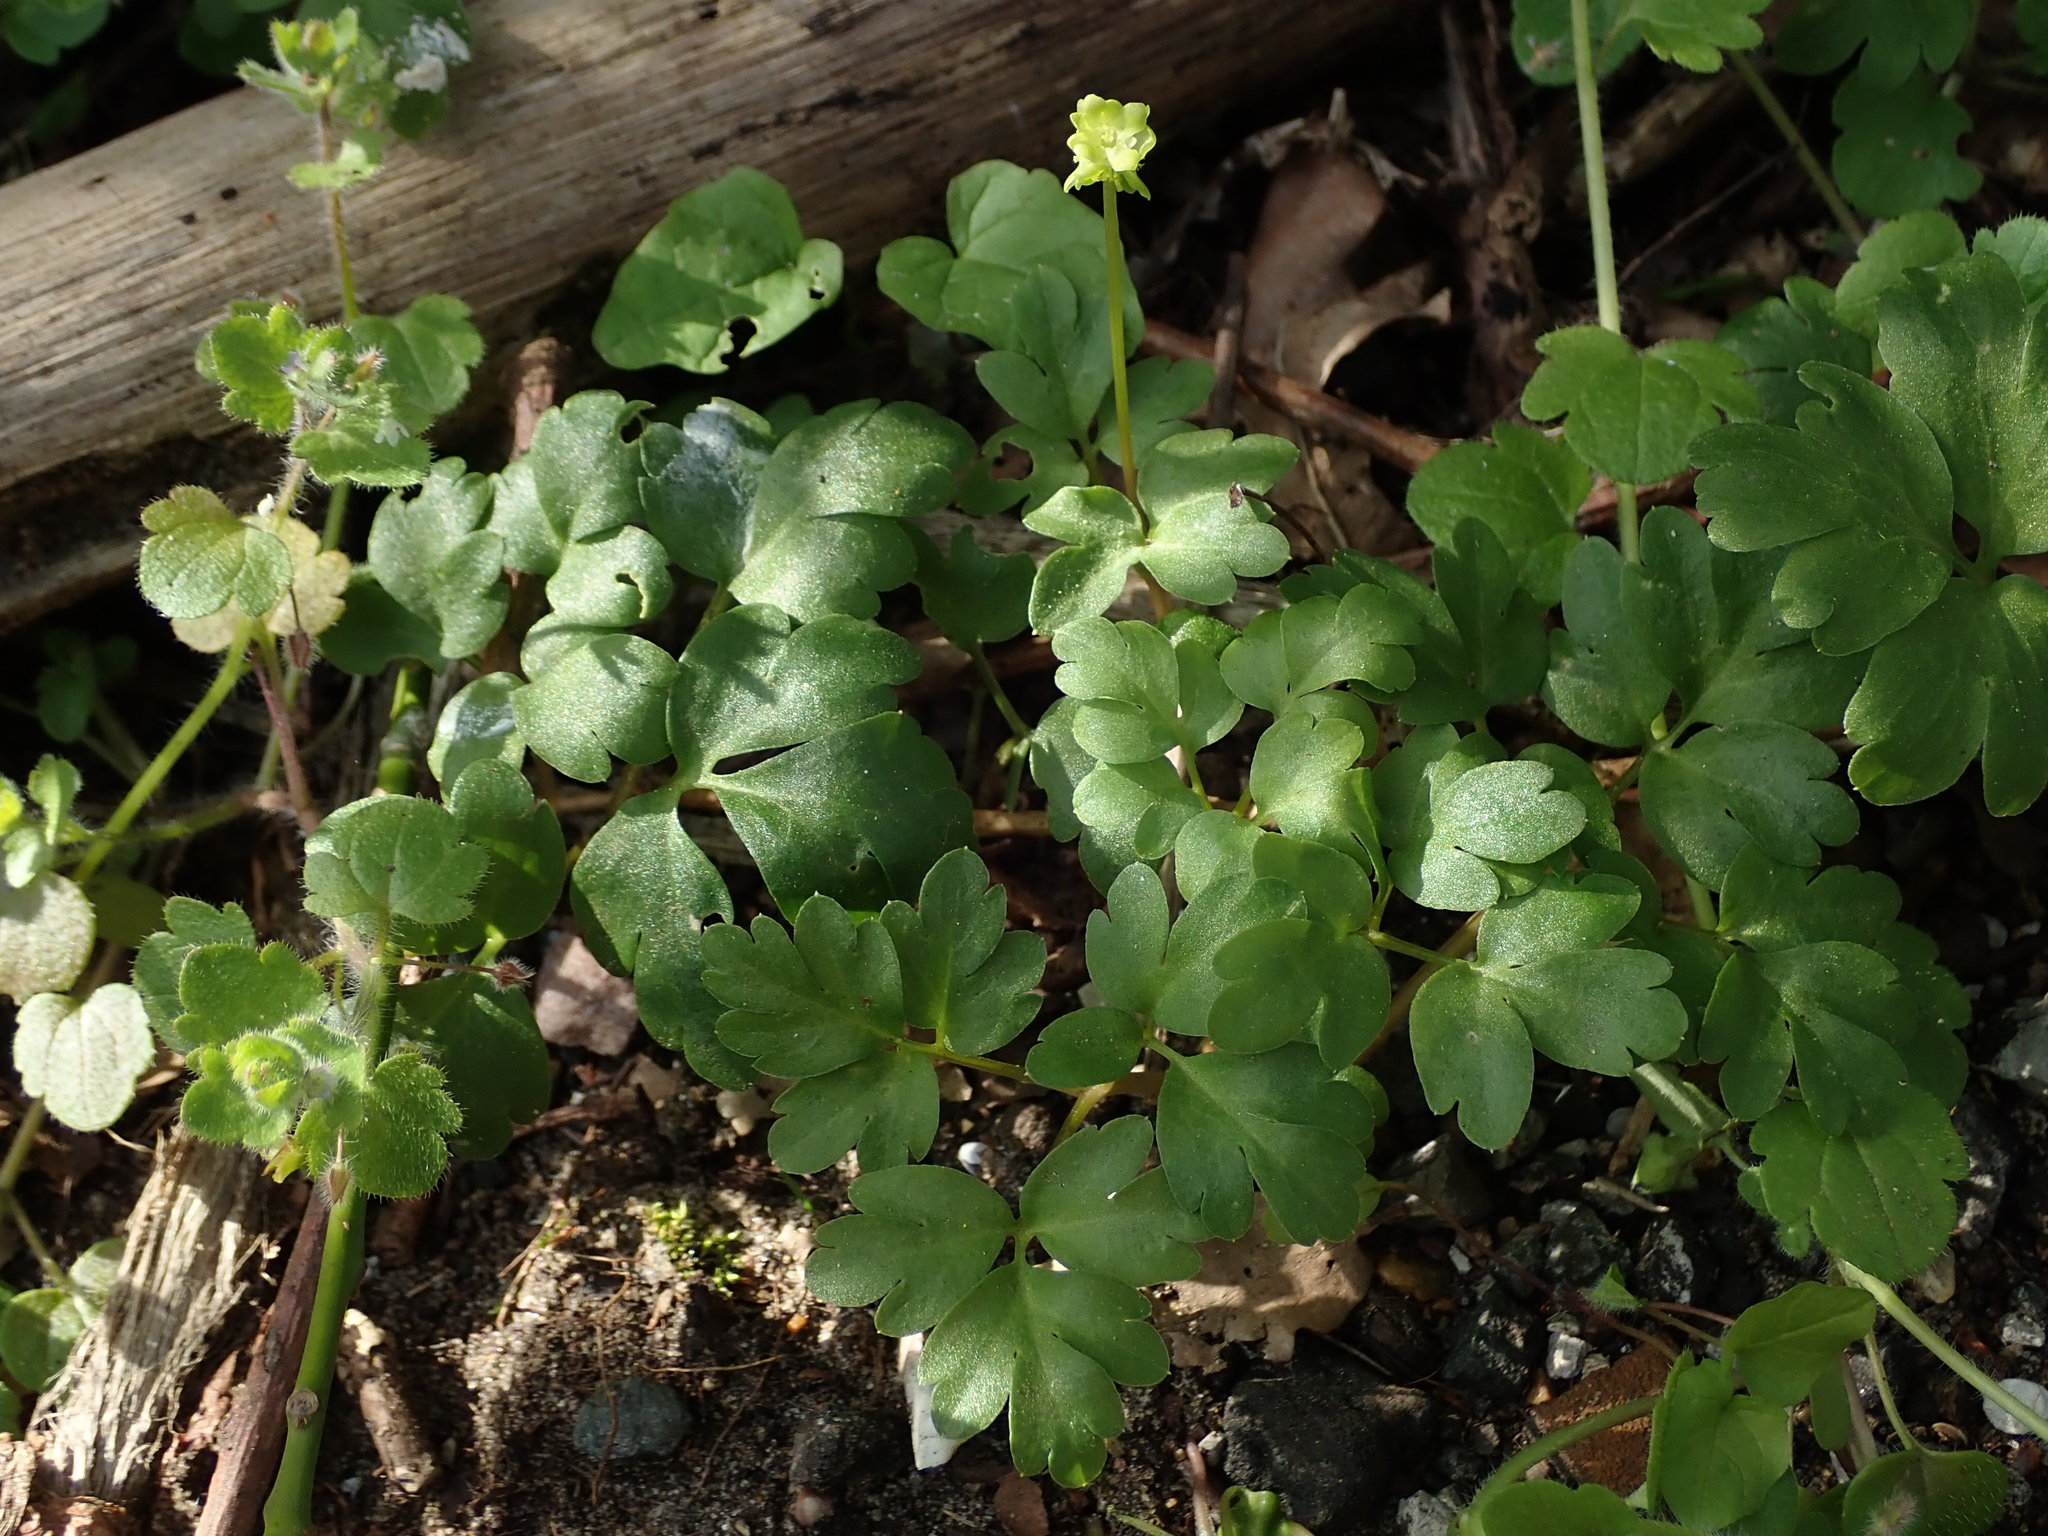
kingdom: Plantae
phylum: Tracheophyta
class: Magnoliopsida
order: Dipsacales
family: Viburnaceae
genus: Adoxa
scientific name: Adoxa moschatellina
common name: Moschatel
